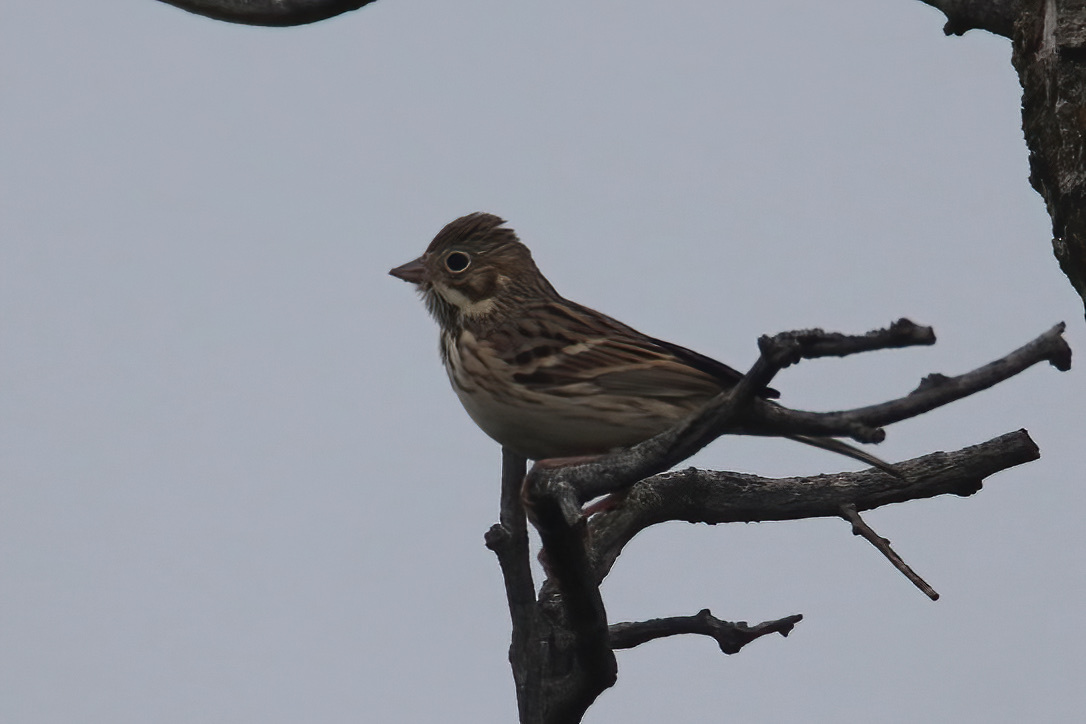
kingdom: Animalia
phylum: Chordata
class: Aves
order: Passeriformes
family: Passerellidae
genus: Pooecetes
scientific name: Pooecetes gramineus
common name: Vesper sparrow
